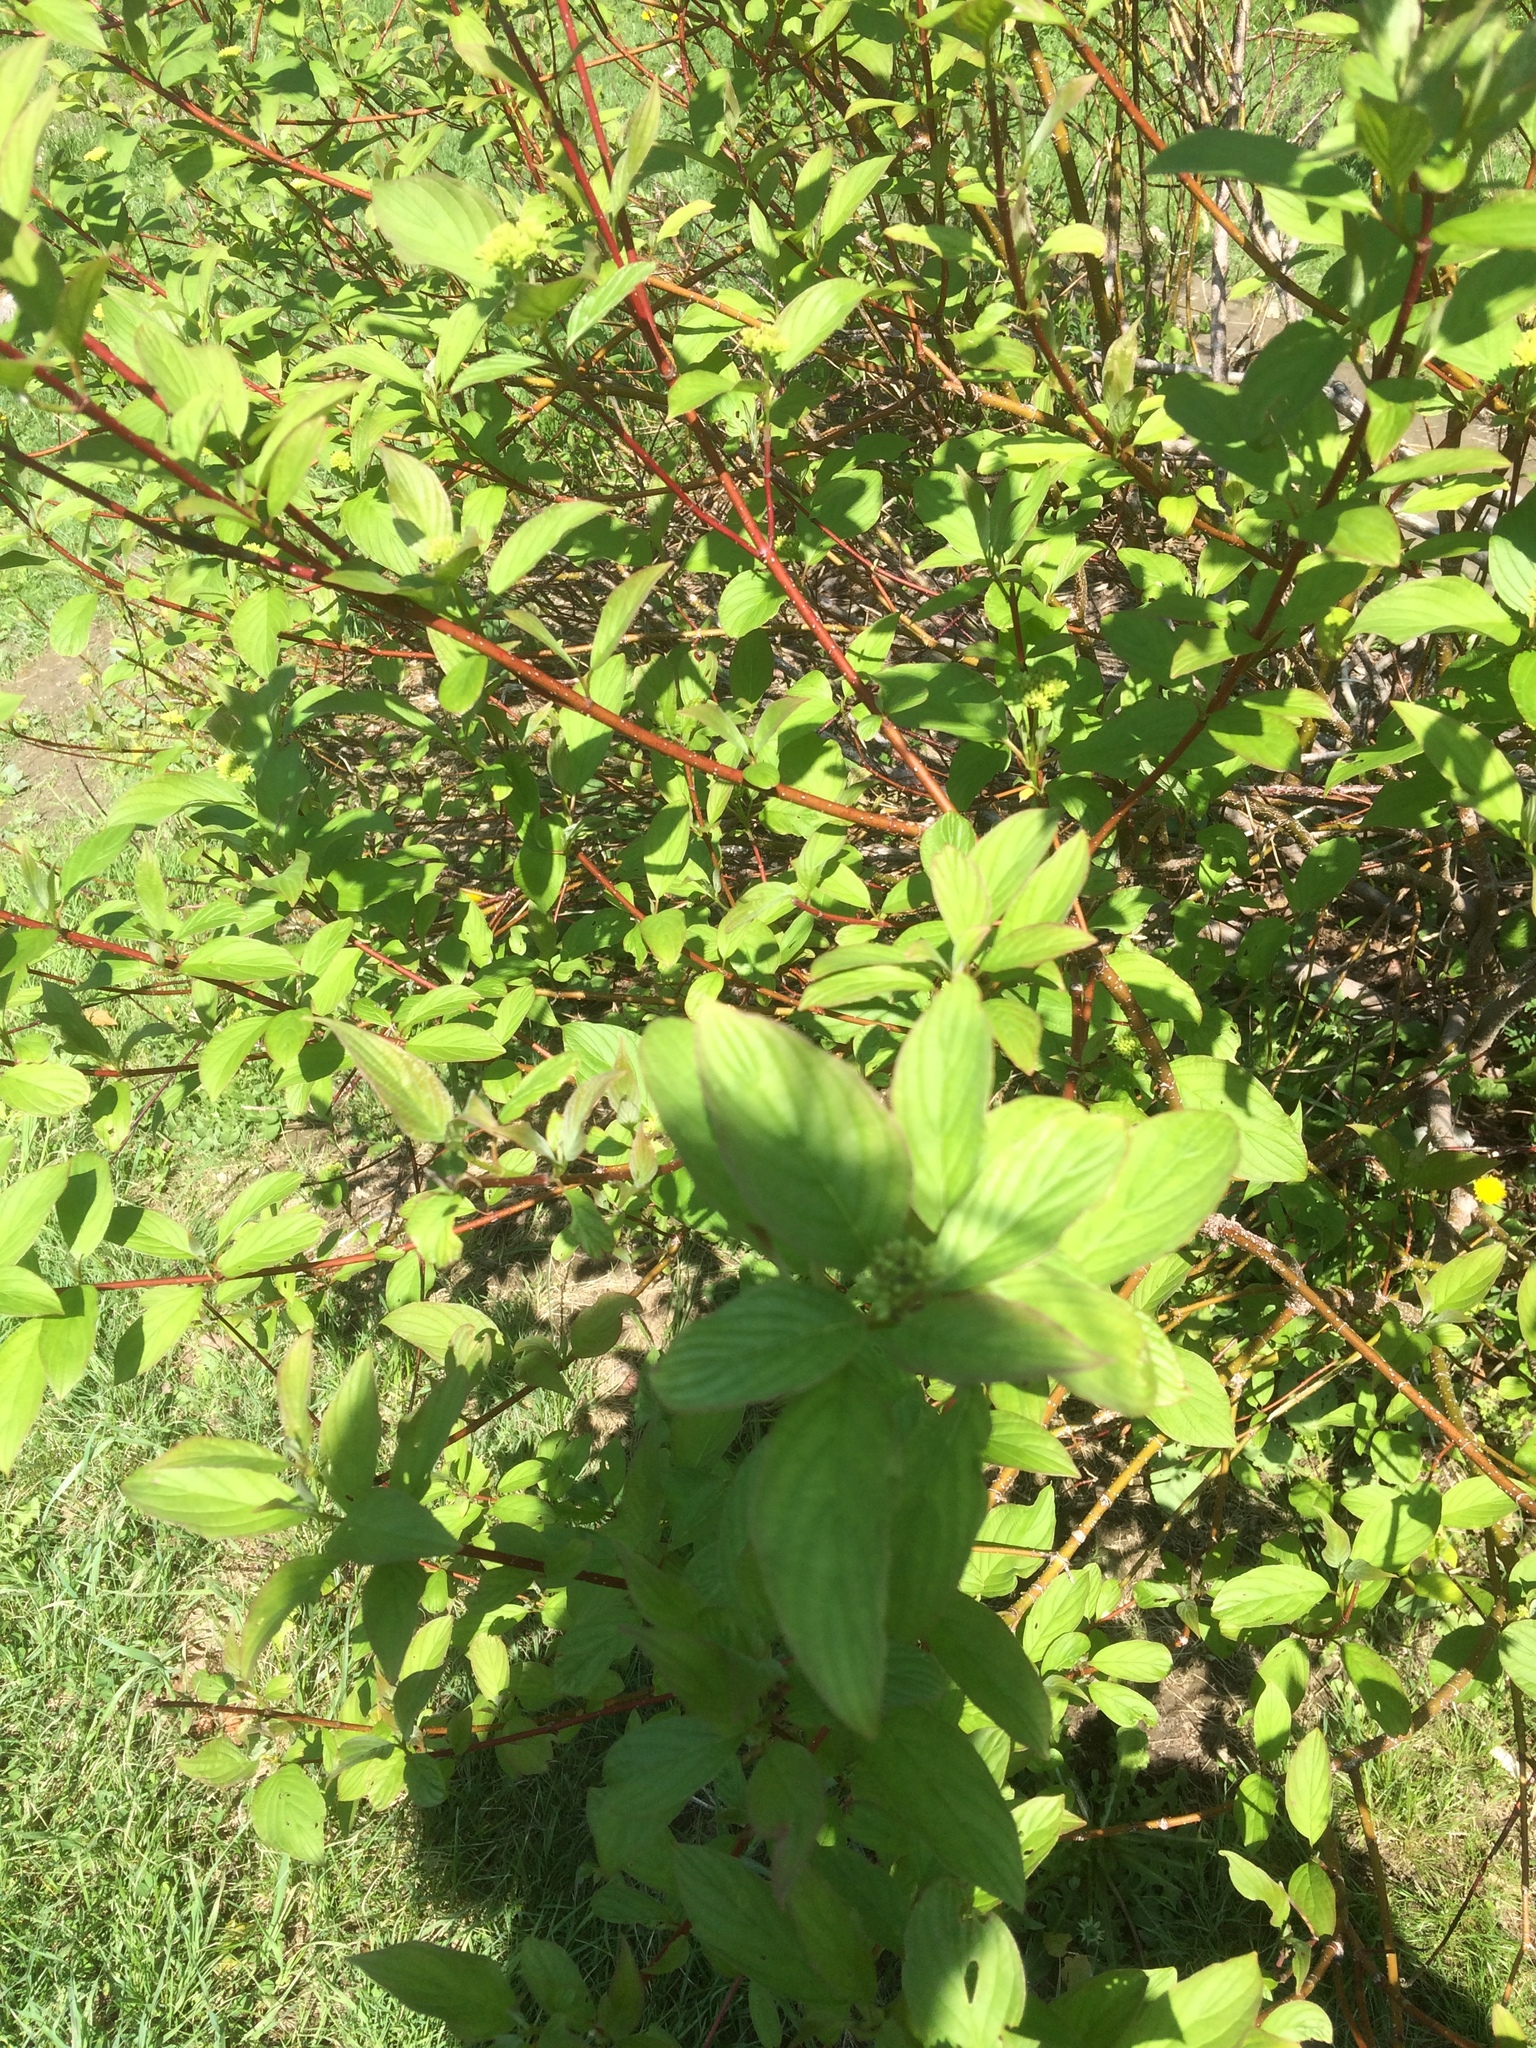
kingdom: Plantae
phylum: Tracheophyta
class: Magnoliopsida
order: Cornales
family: Cornaceae
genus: Cornus
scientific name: Cornus sericea
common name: Red-osier dogwood
